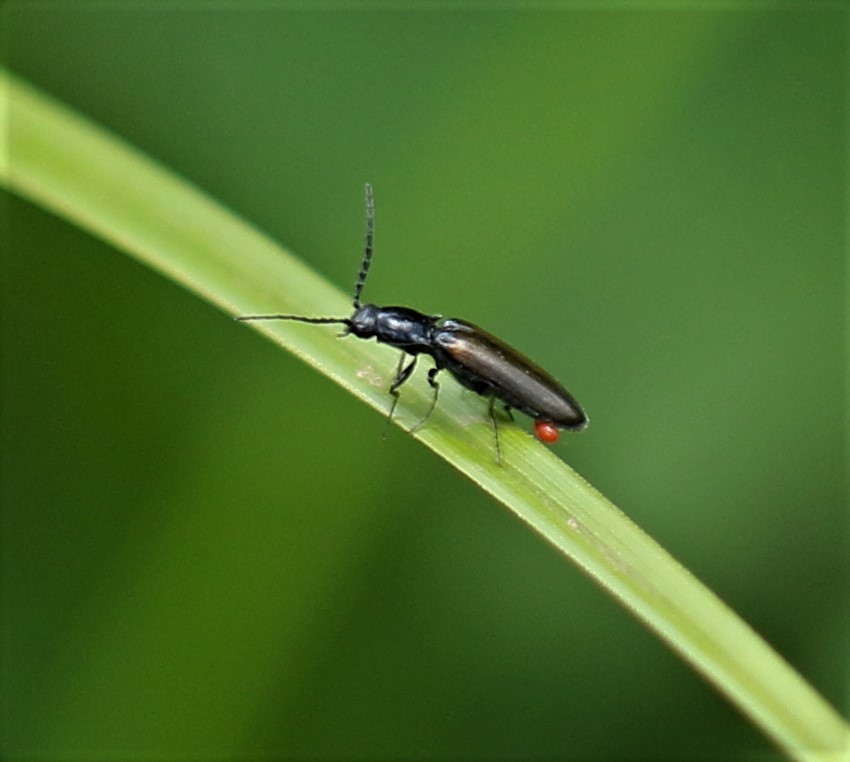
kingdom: Animalia
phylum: Arthropoda
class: Insecta
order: Coleoptera
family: Elateridae
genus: Oestodes
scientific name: Oestodes tenuicollis
